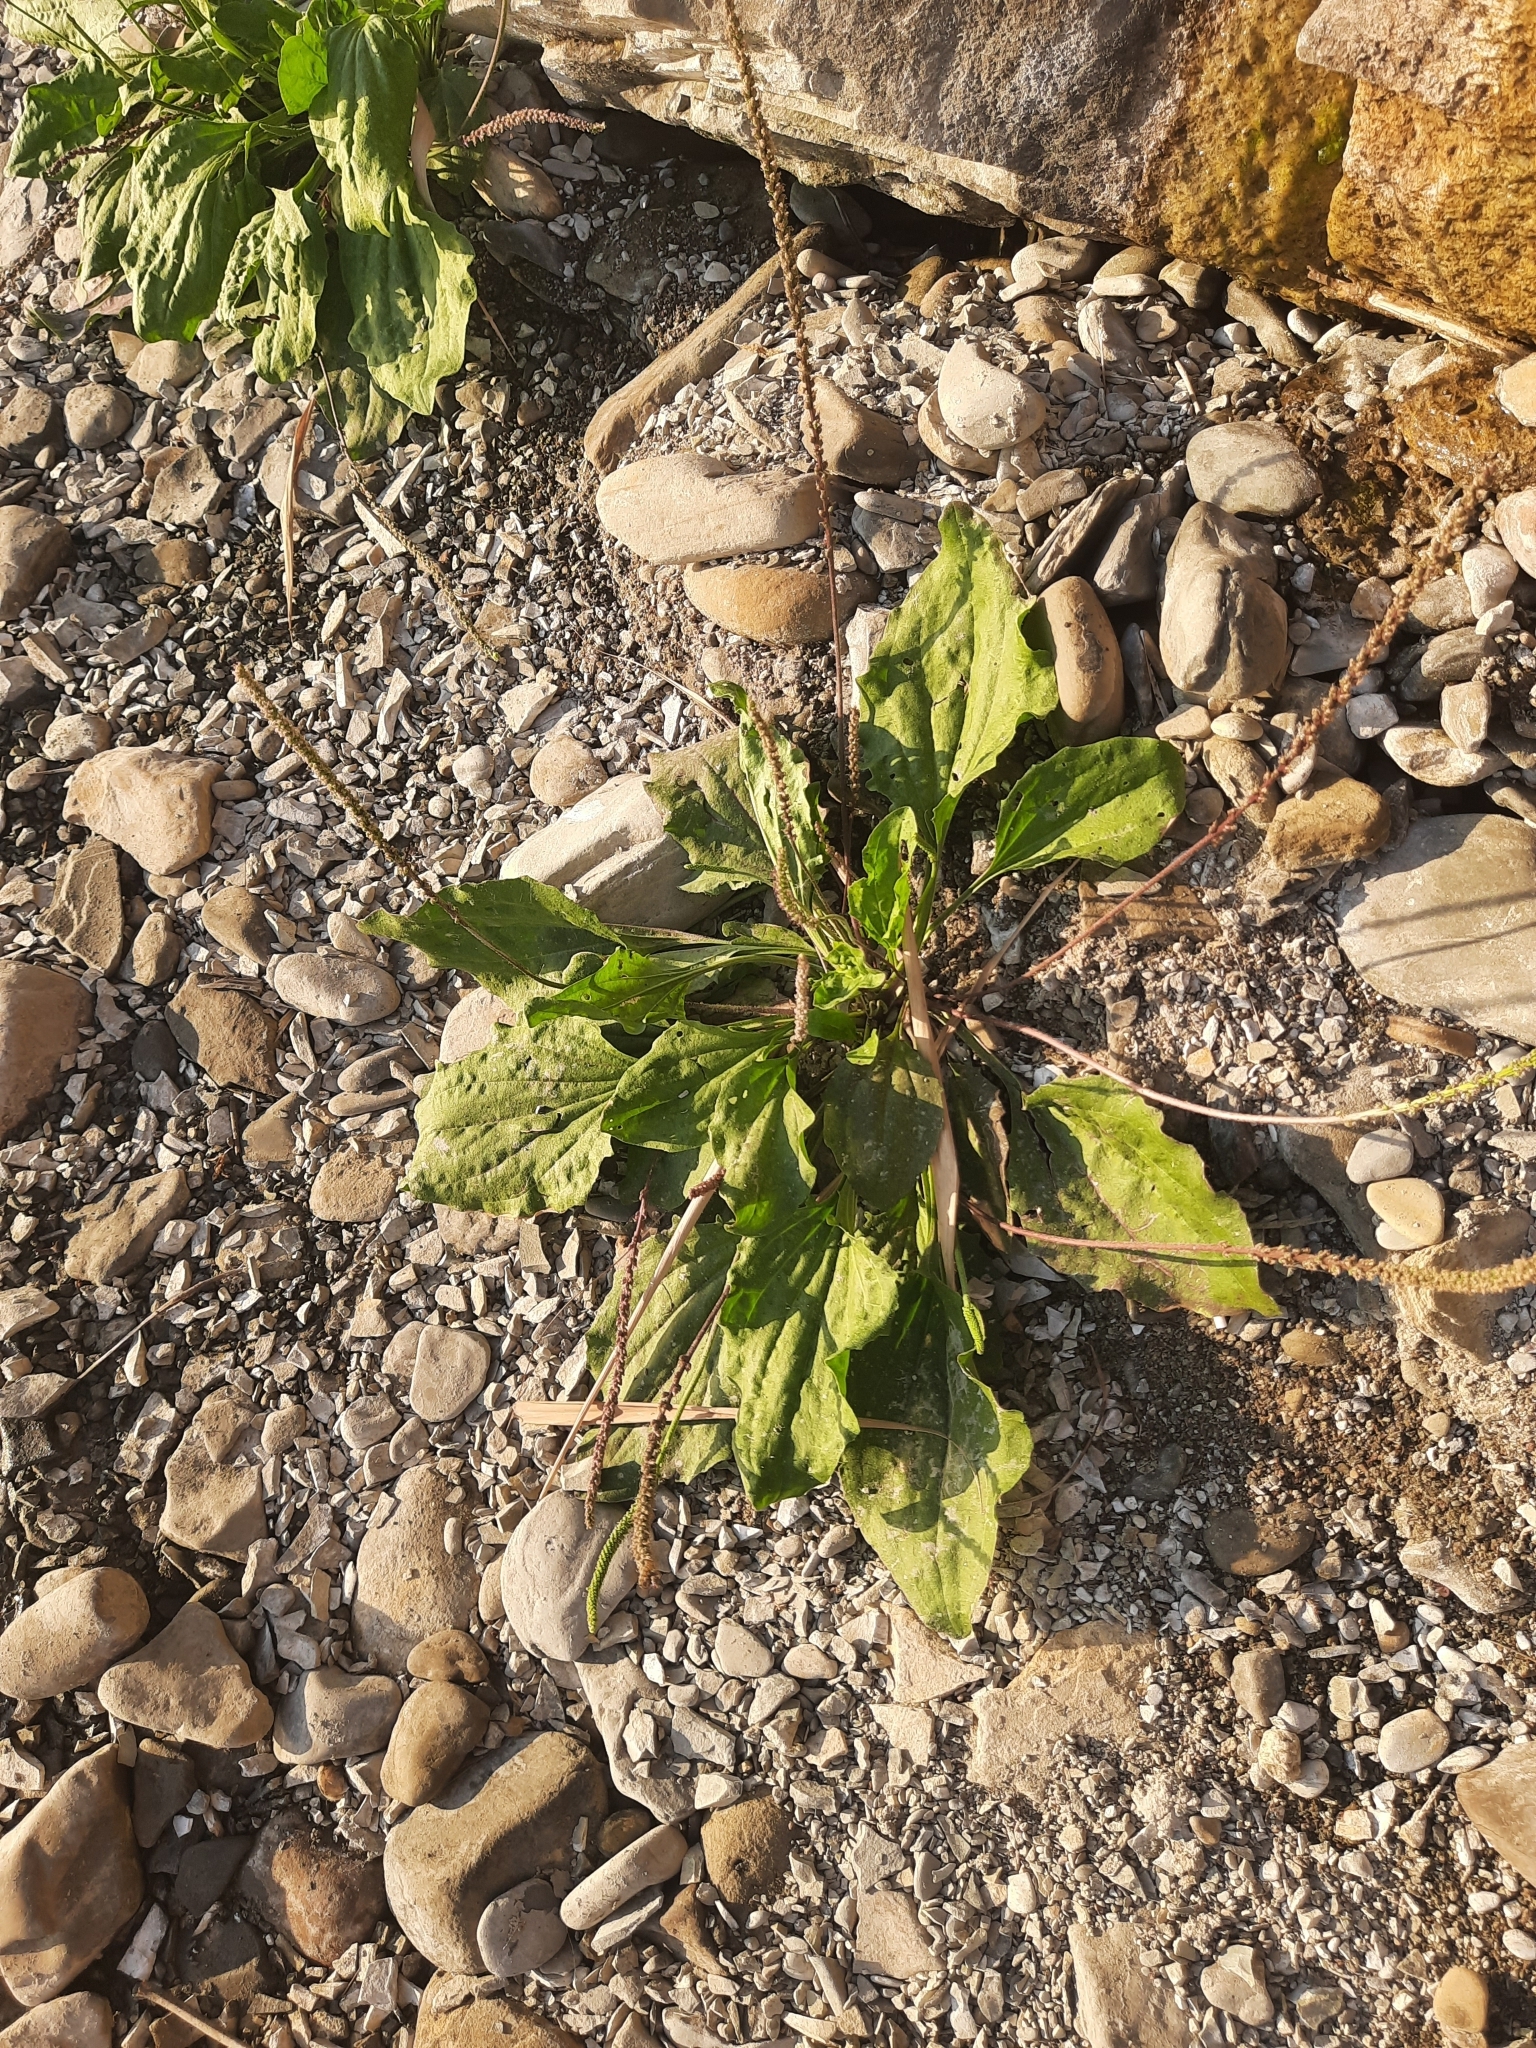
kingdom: Plantae
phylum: Tracheophyta
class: Magnoliopsida
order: Lamiales
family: Plantaginaceae
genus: Plantago
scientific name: Plantago major
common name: Common plantain
